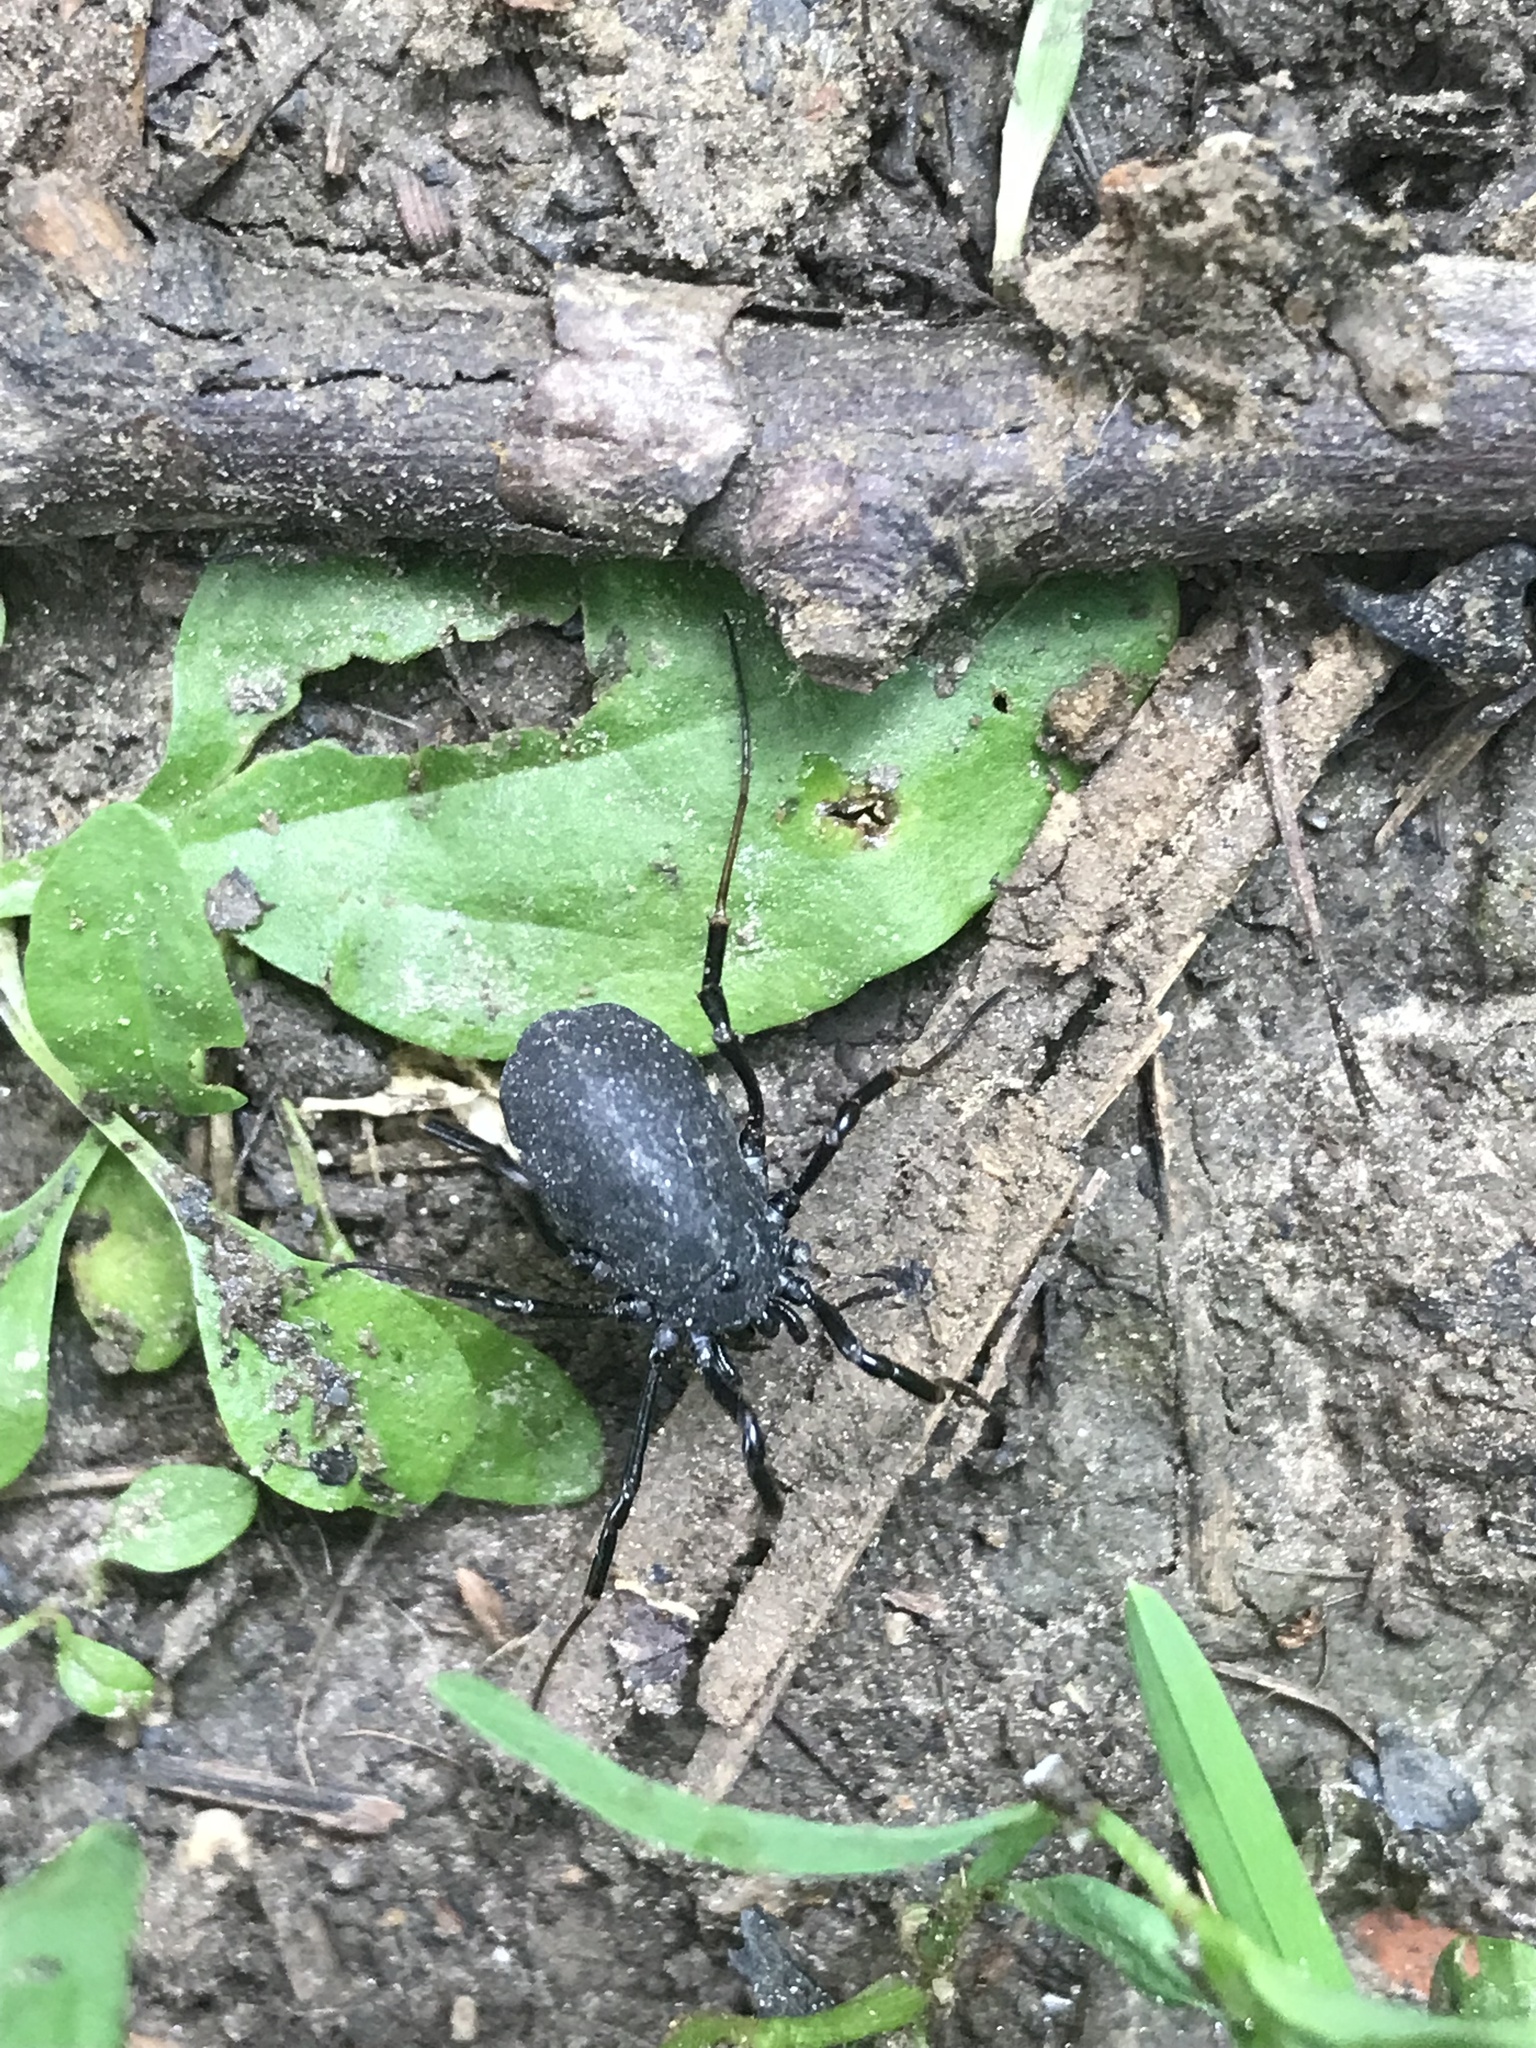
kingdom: Animalia
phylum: Arthropoda
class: Arachnida
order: Opiliones
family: Phalangiidae
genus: Egaenus
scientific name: Egaenus convexus
